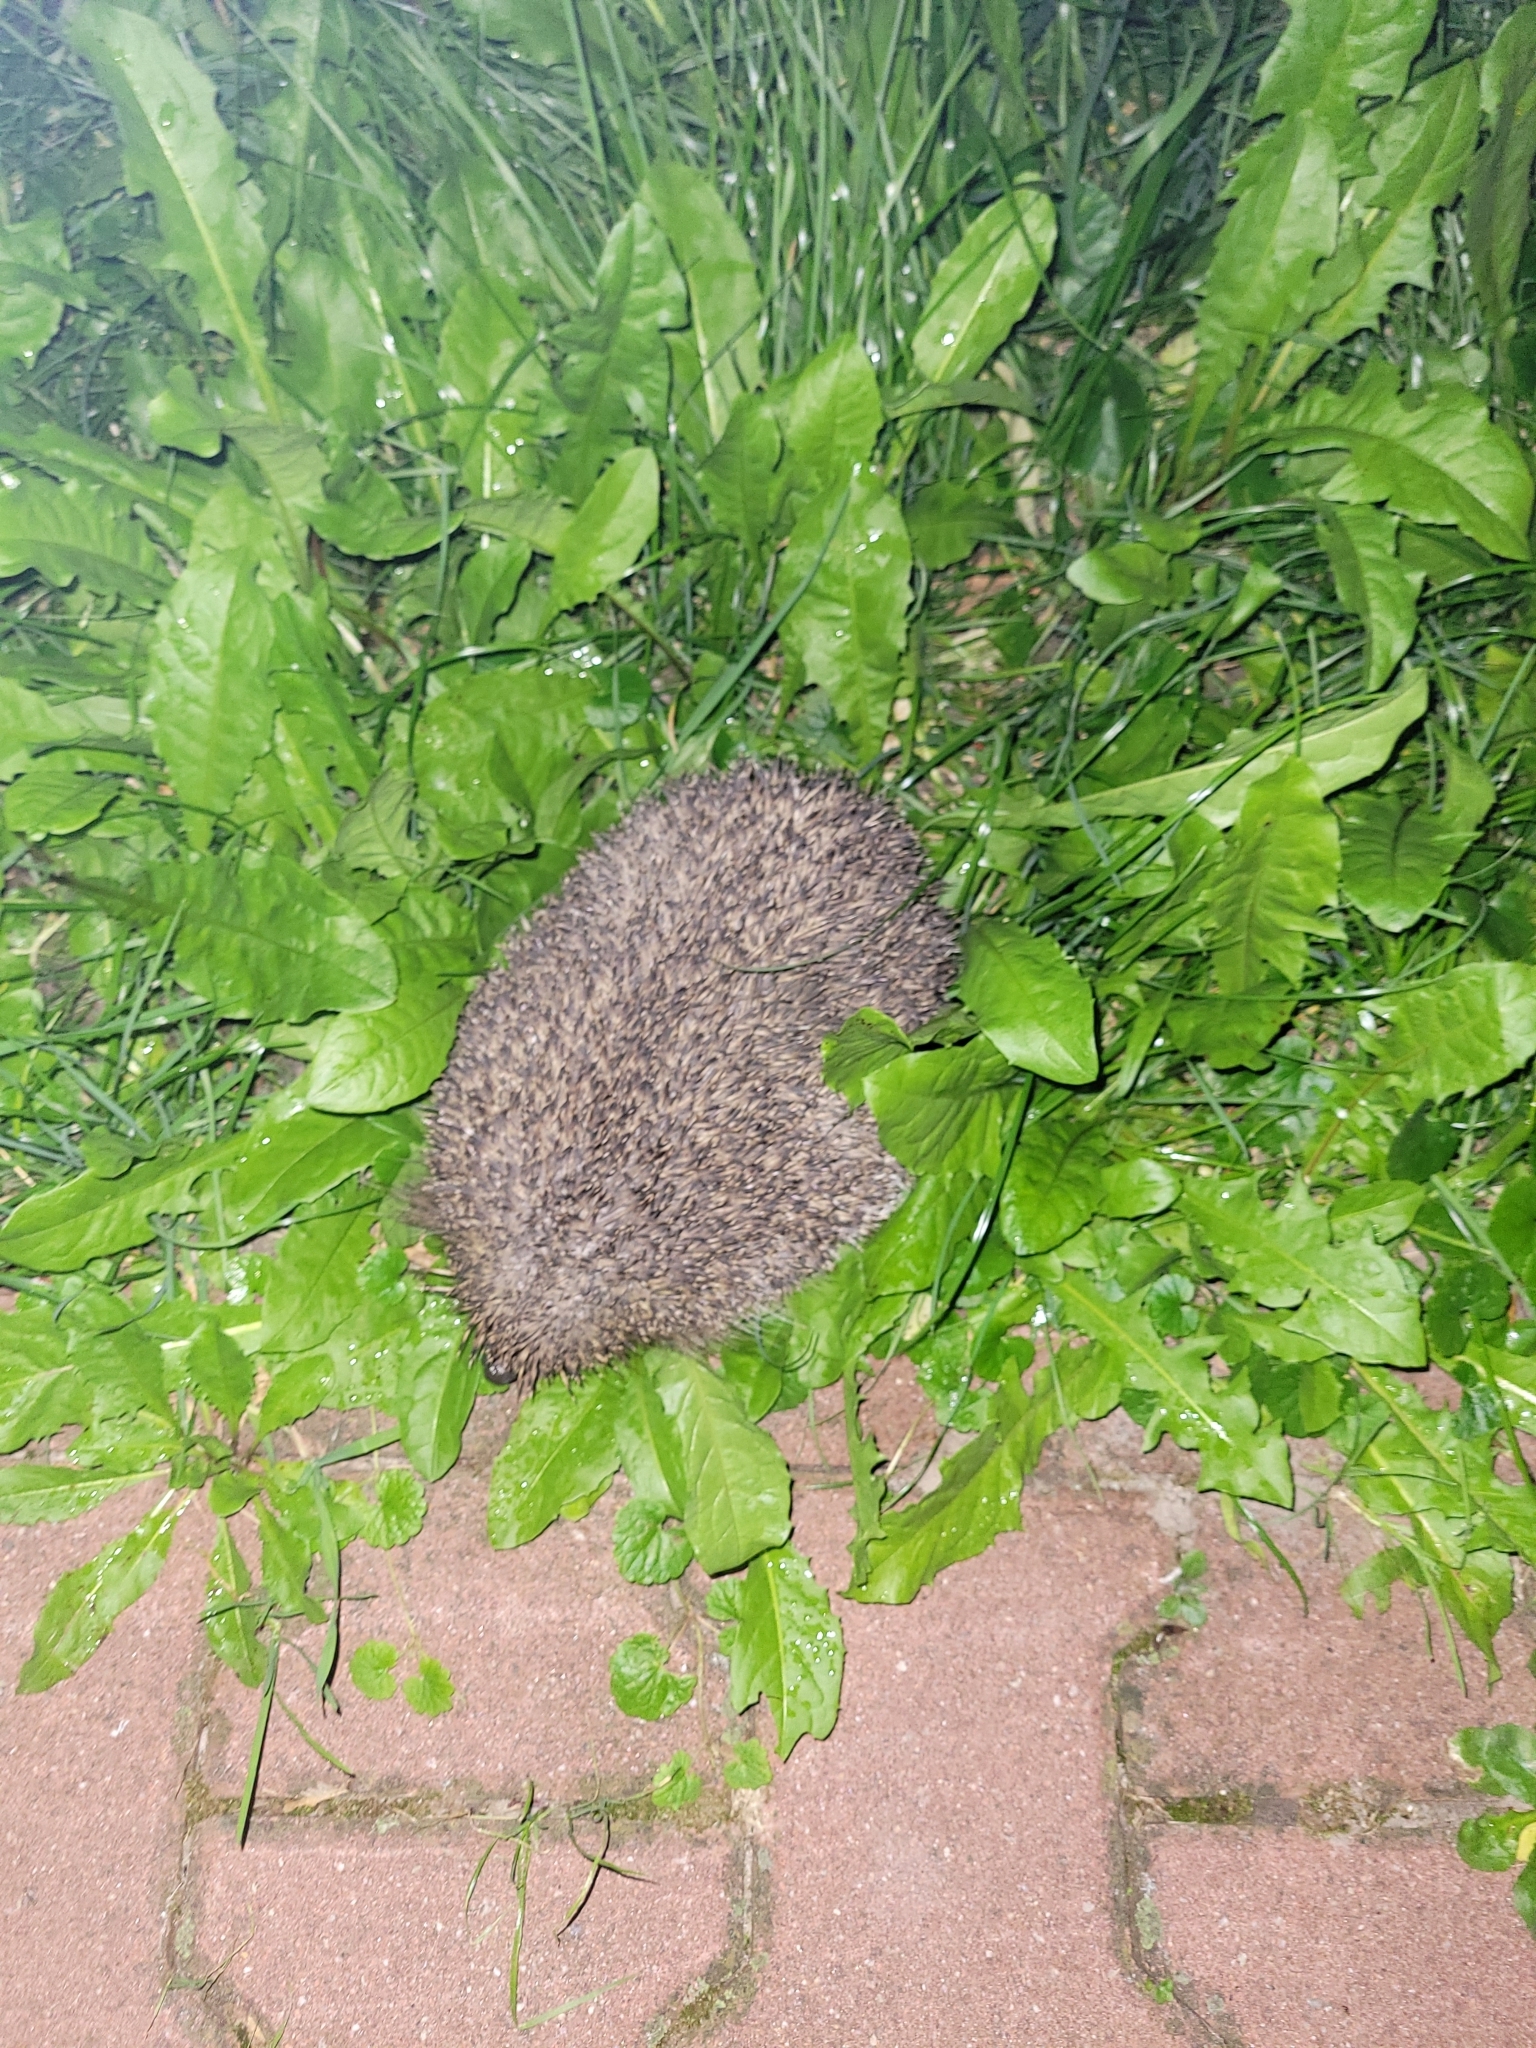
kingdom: Animalia
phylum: Chordata
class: Mammalia
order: Erinaceomorpha
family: Erinaceidae
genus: Erinaceus
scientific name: Erinaceus roumanicus
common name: Northern white-breasted hedgehog
